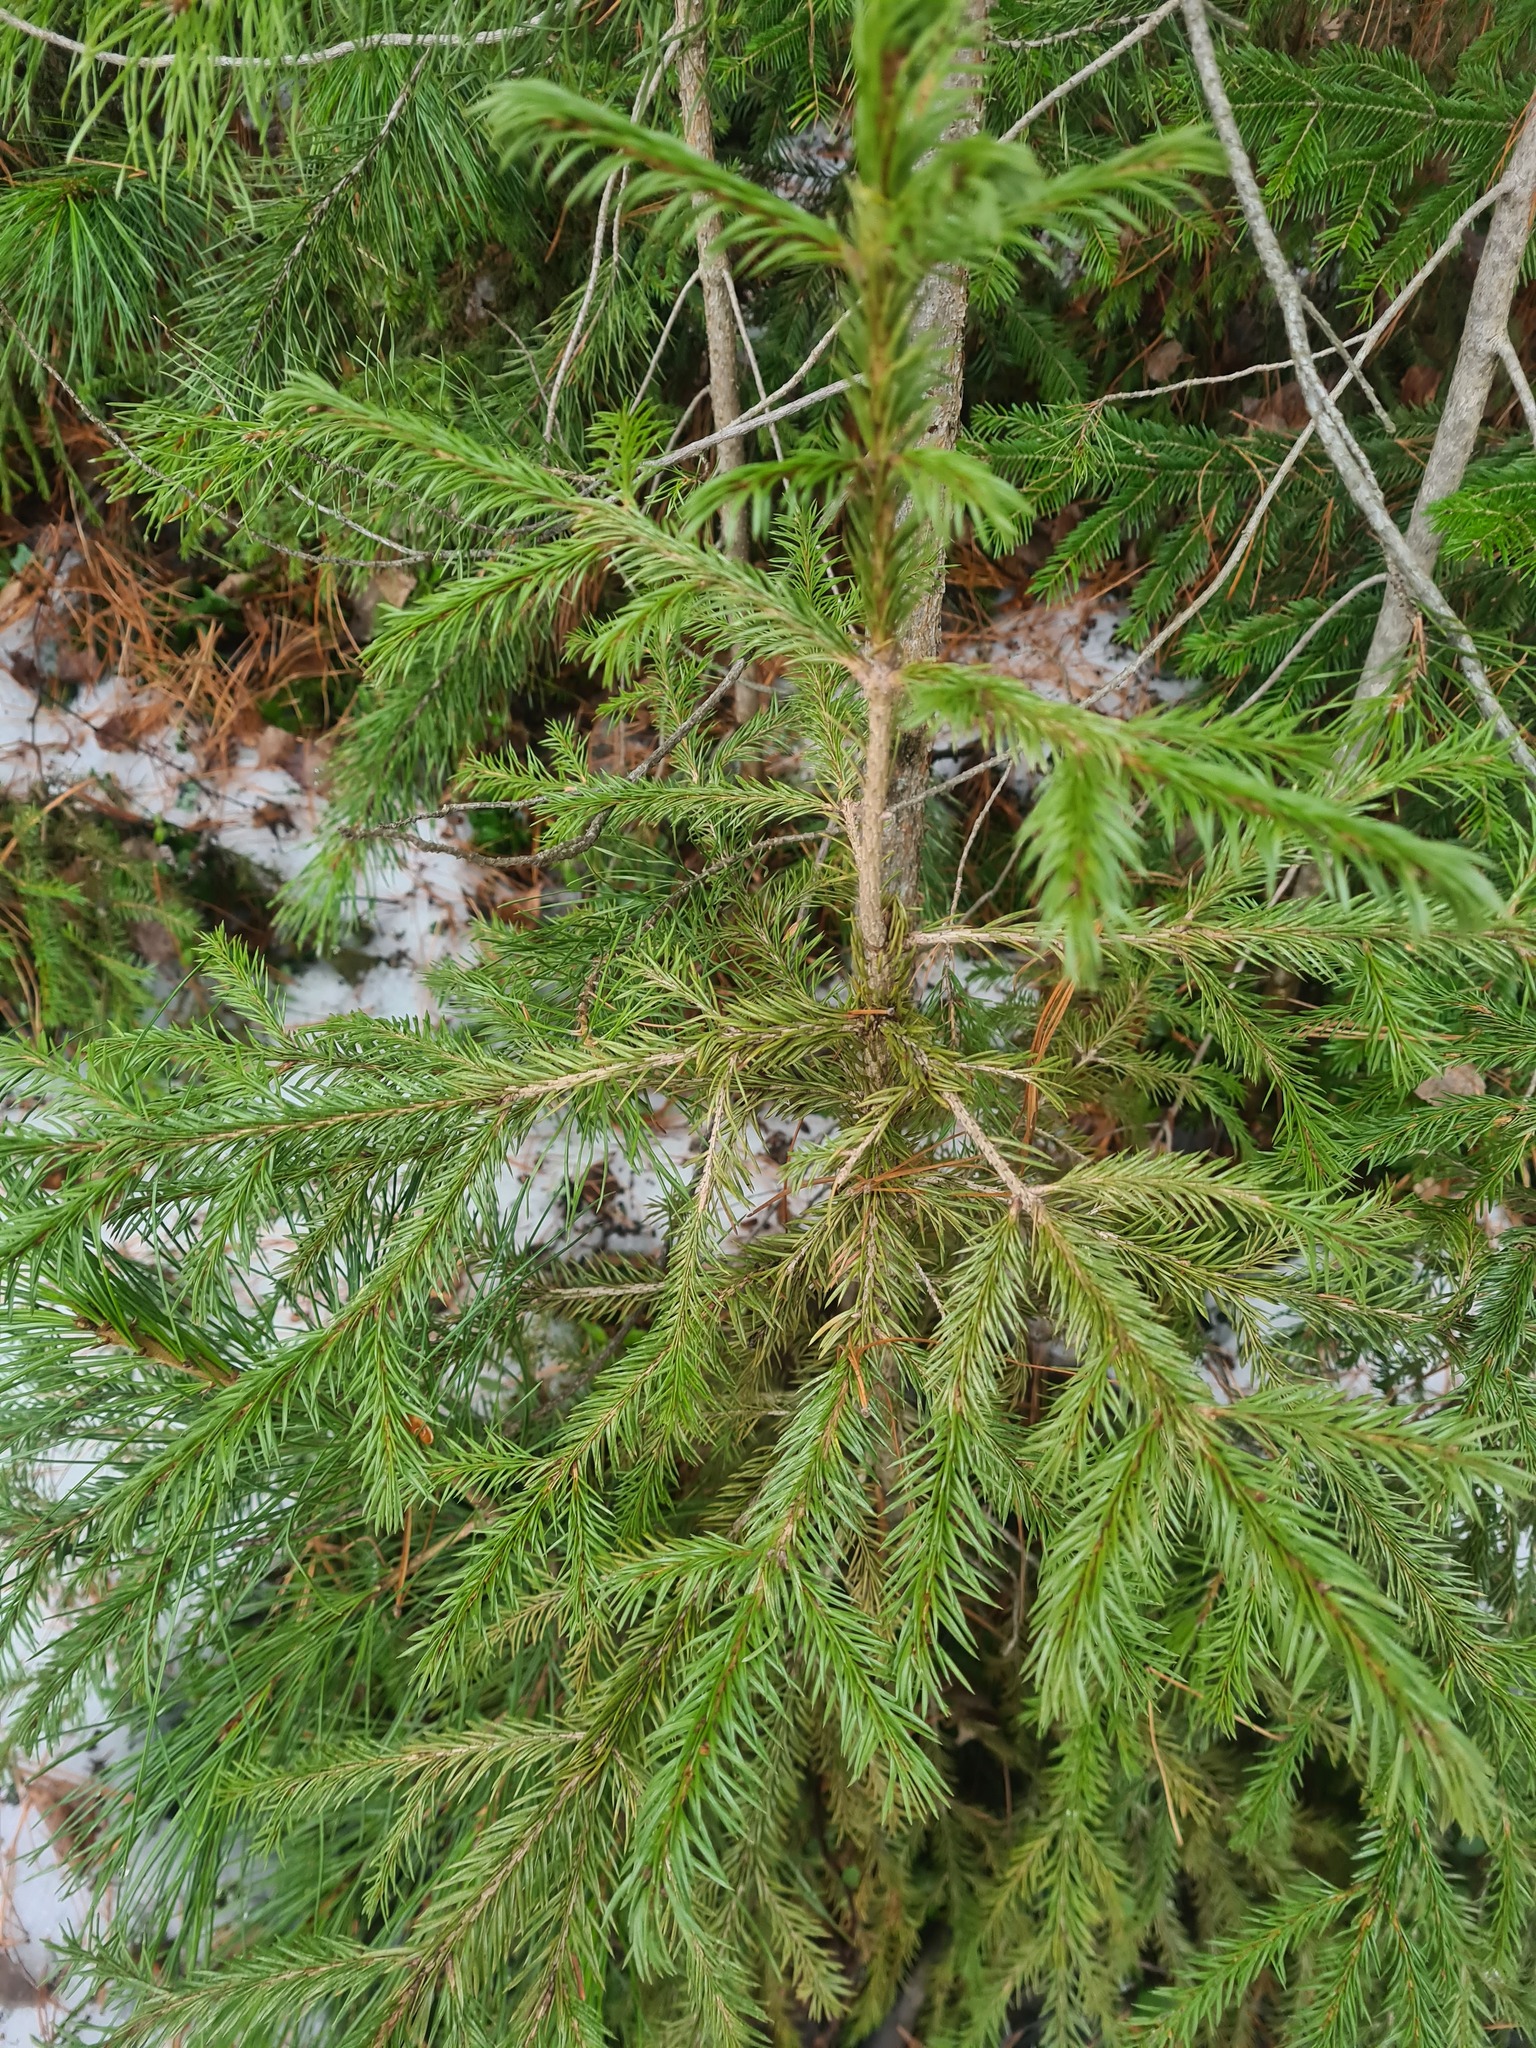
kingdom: Plantae
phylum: Tracheophyta
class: Pinopsida
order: Pinales
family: Pinaceae
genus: Picea
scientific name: Picea obovata
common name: Siberian spruce
